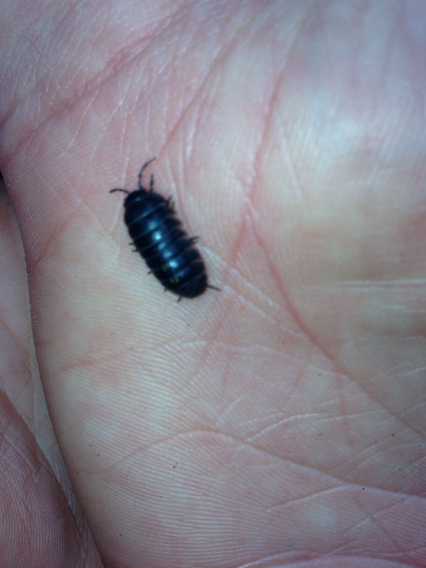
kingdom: Animalia
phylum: Arthropoda
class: Malacostraca
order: Isopoda
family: Armadillidiidae
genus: Armadillidium
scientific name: Armadillidium vulgare
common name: Common pill woodlouse
